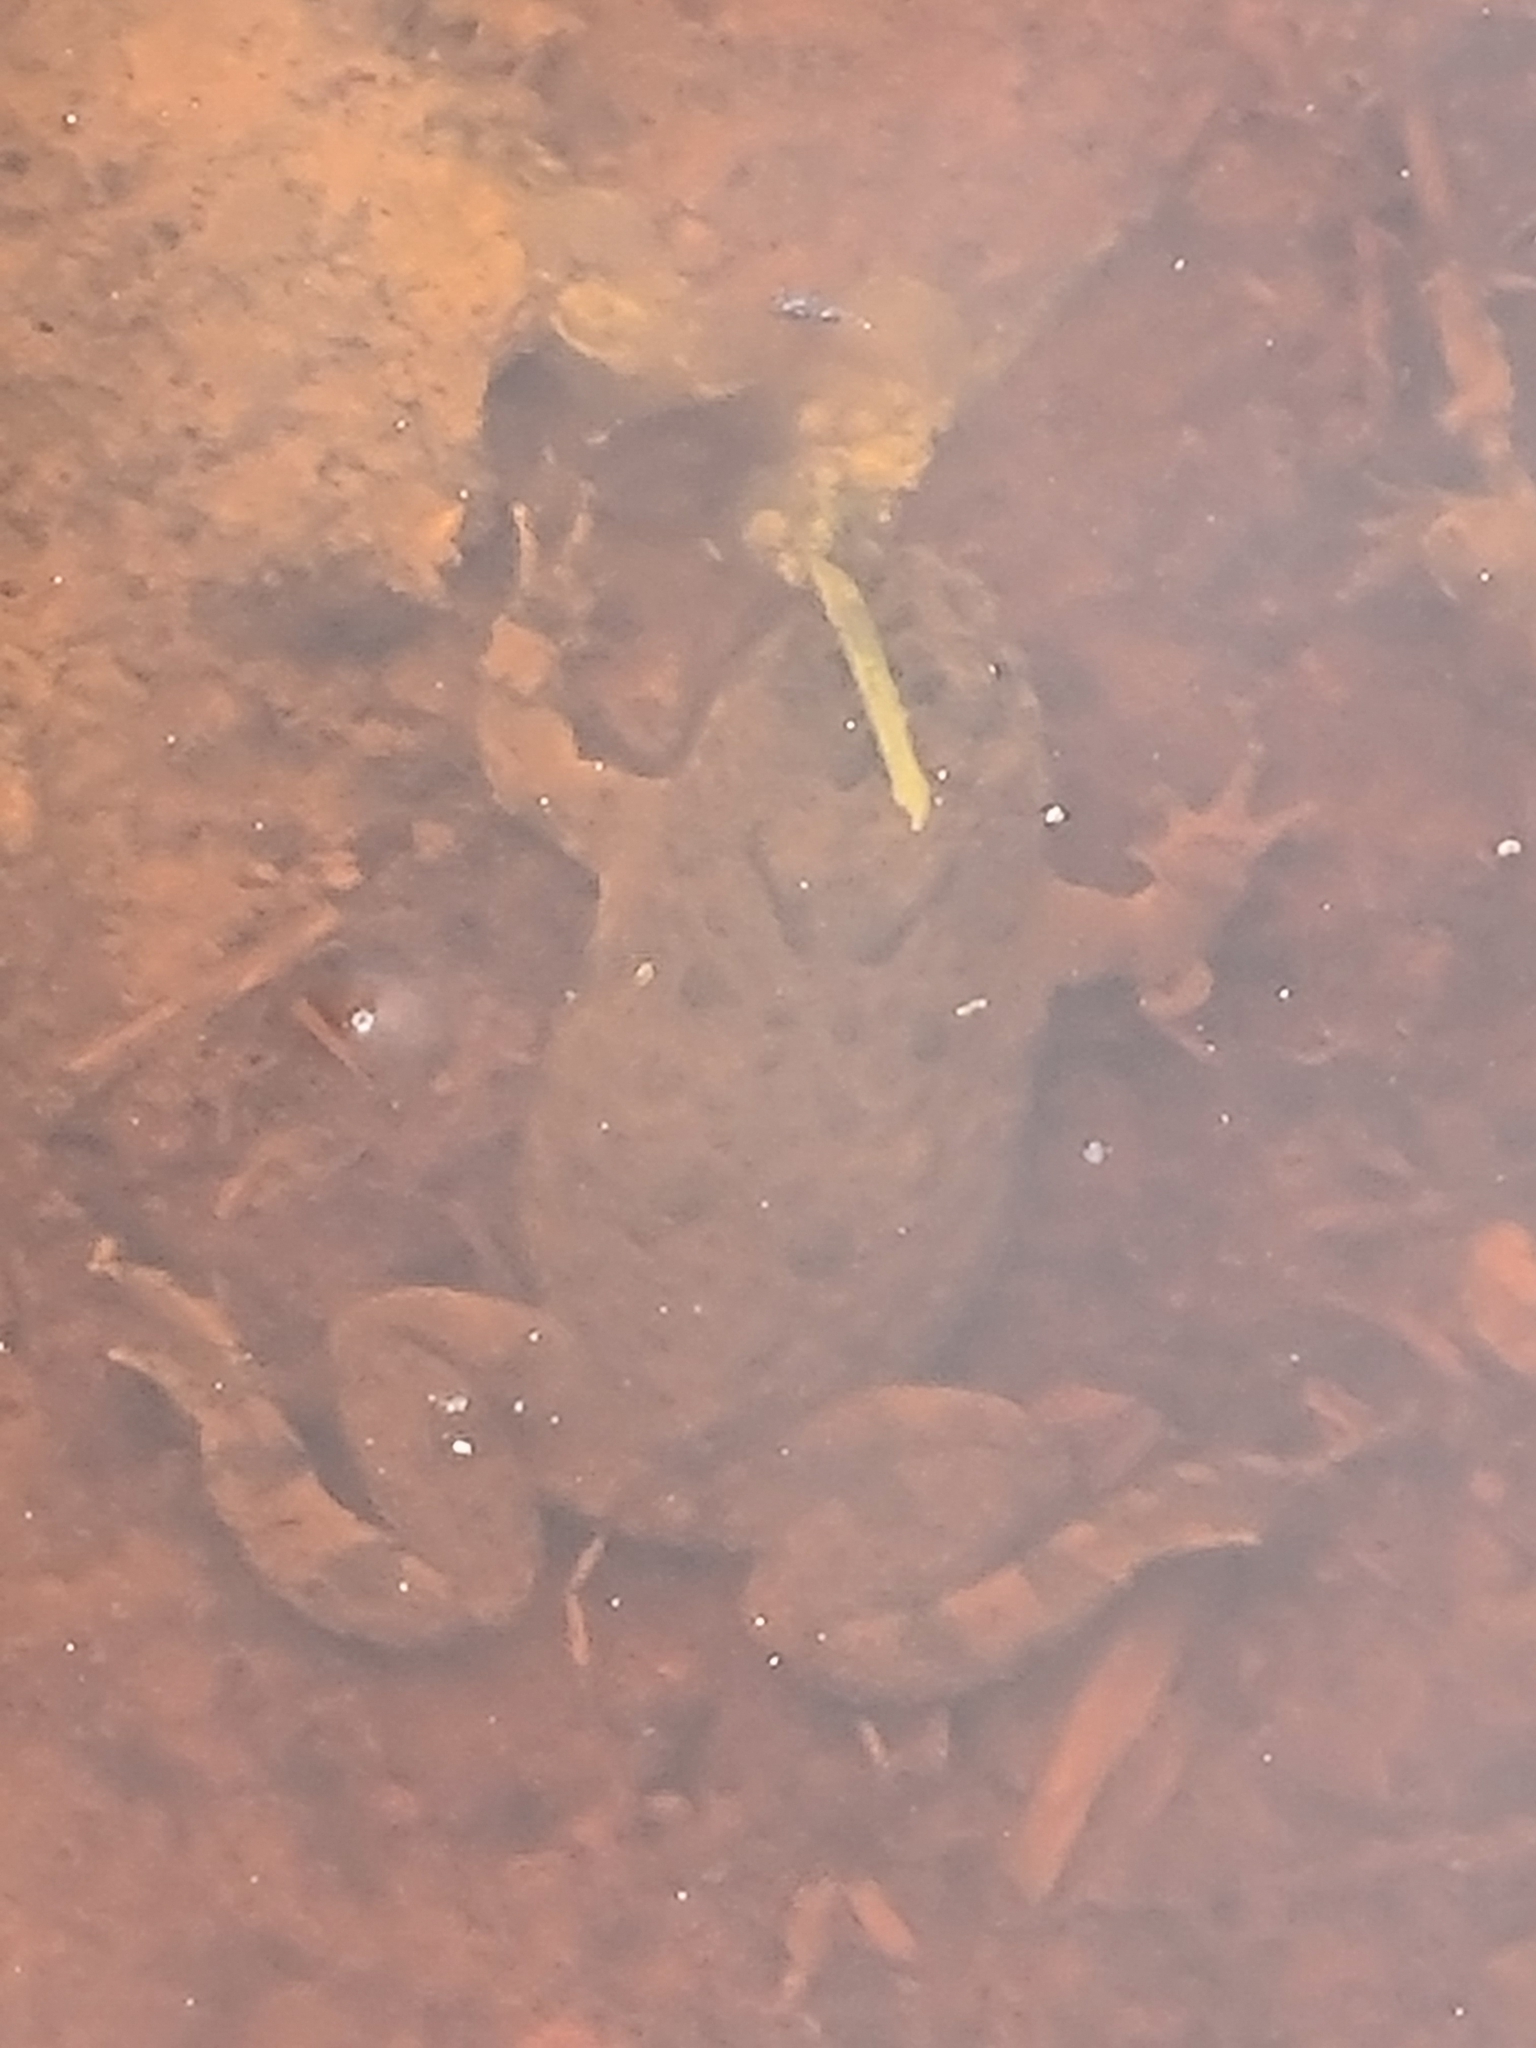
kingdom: Animalia
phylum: Chordata
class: Amphibia
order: Anura
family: Bombinatoridae
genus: Bombina
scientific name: Bombina variegata
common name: Yellow-bellied toad
